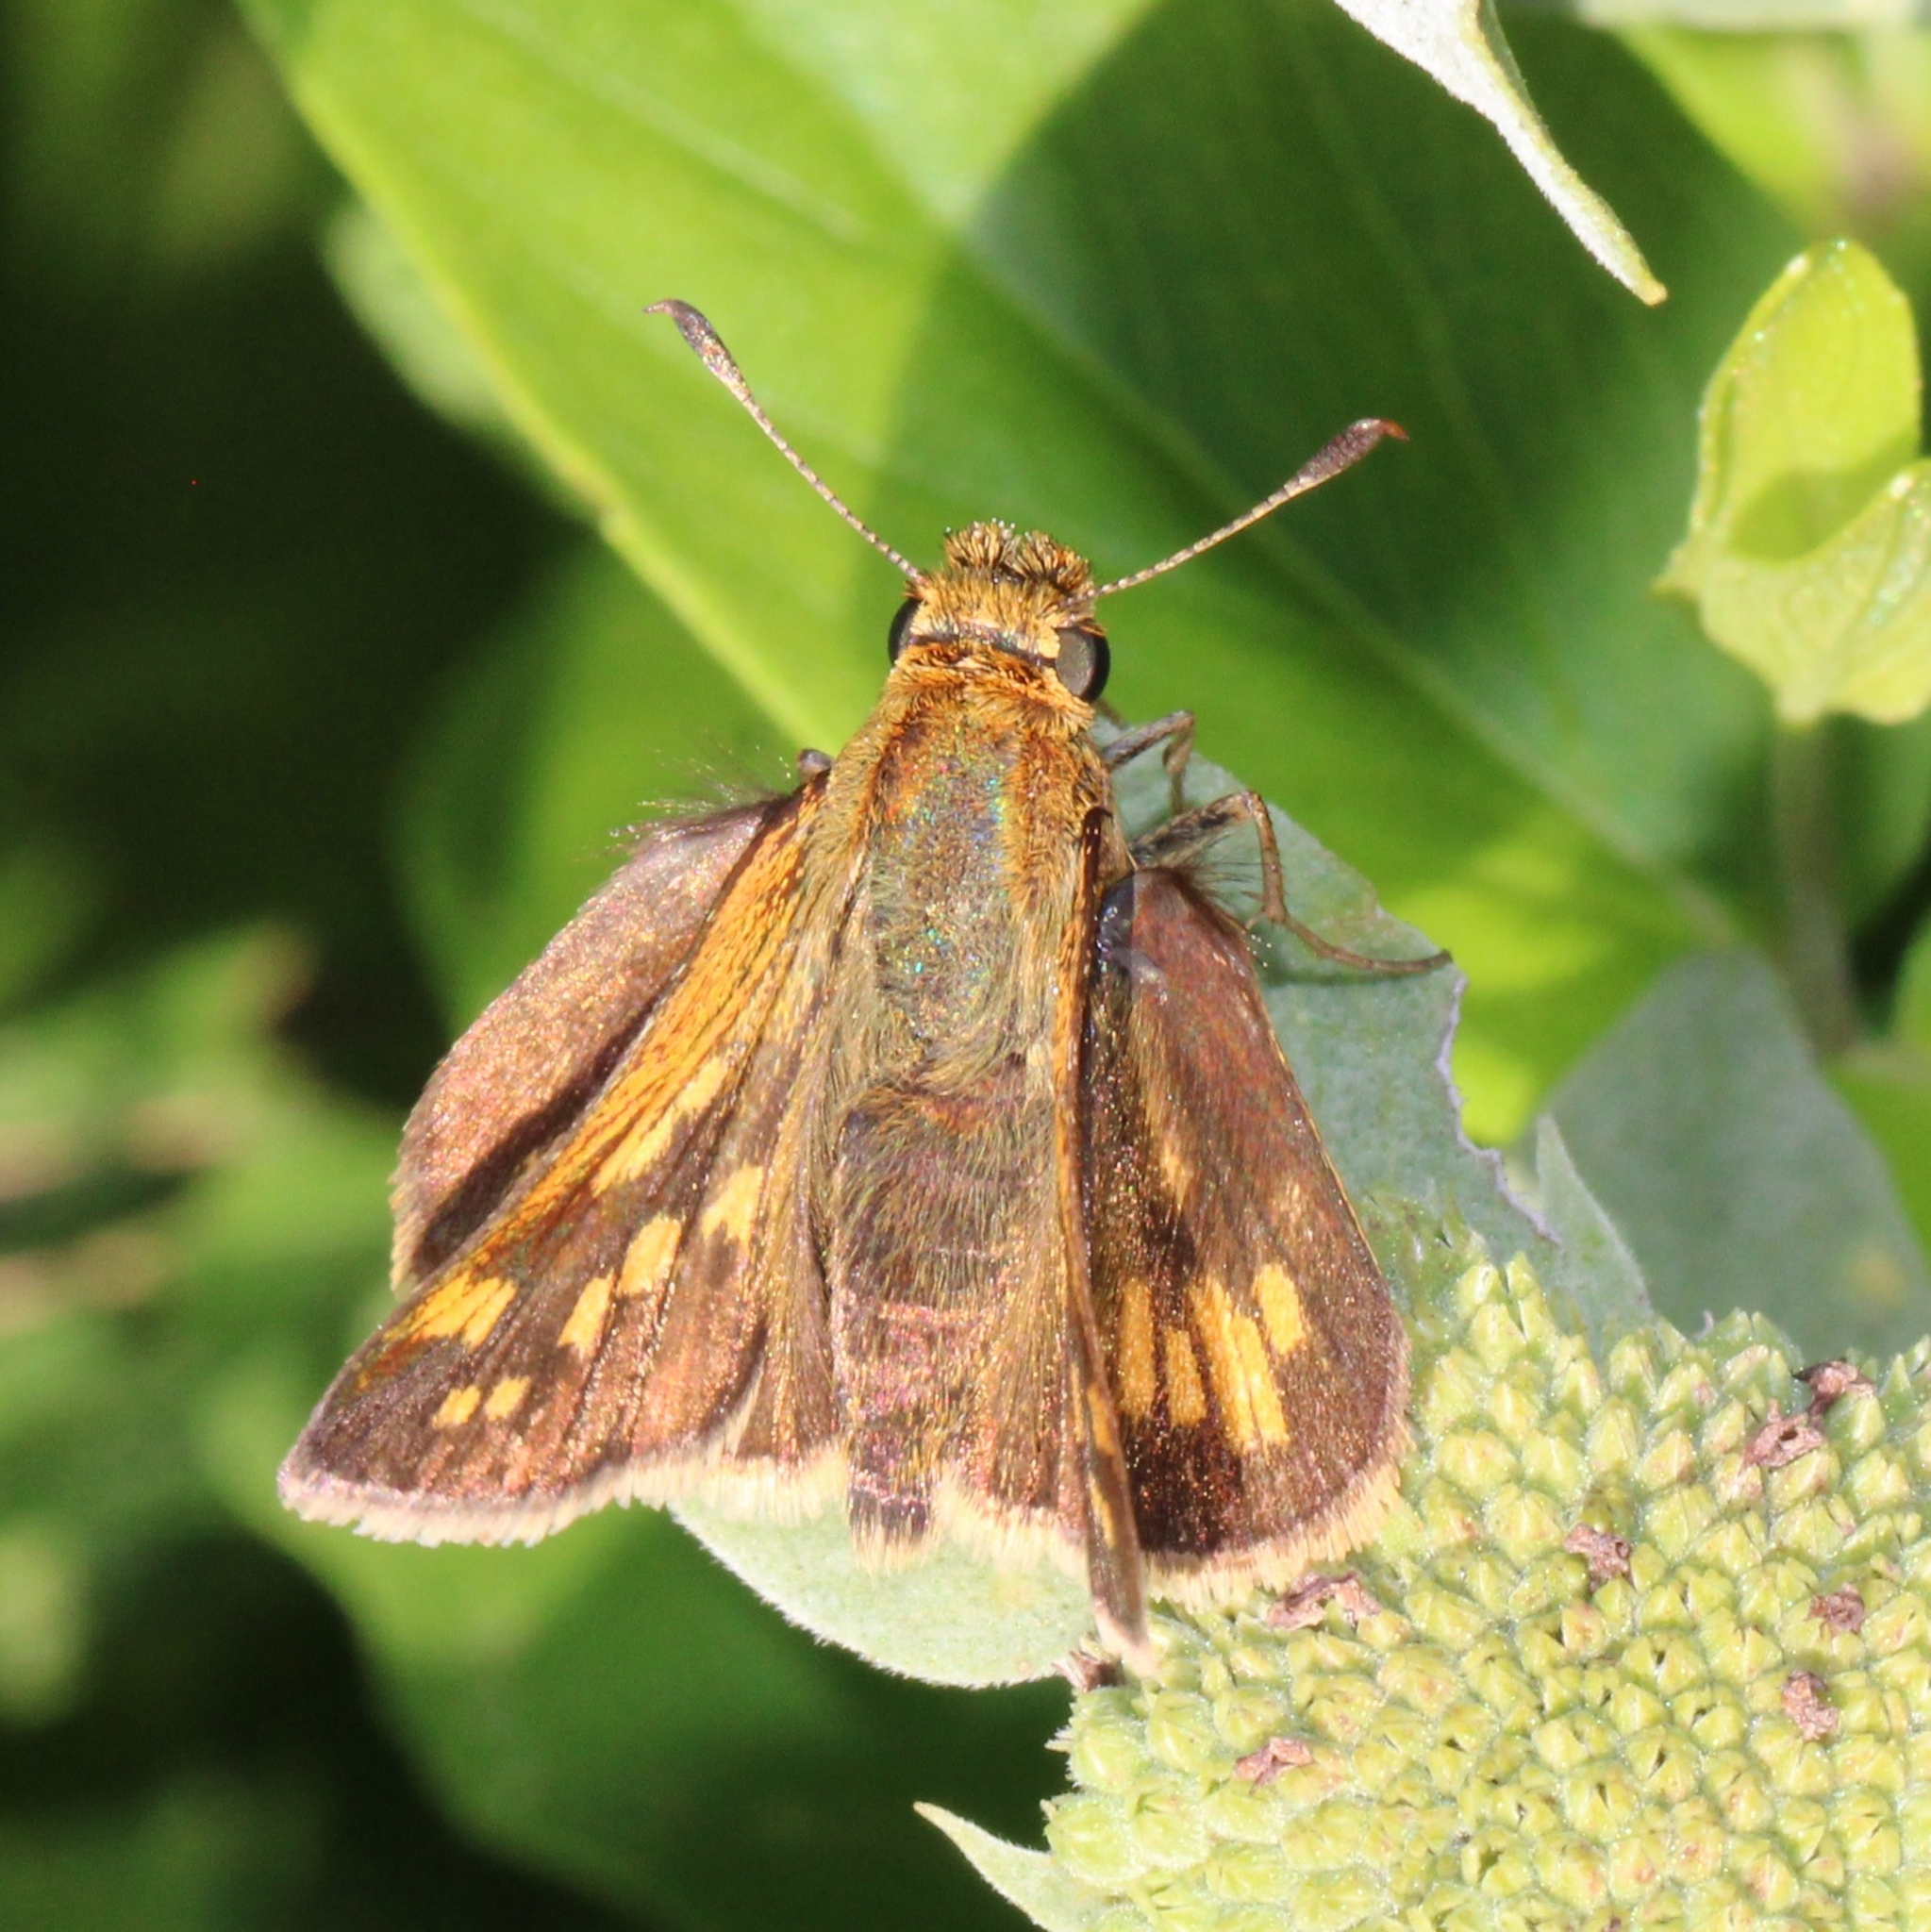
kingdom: Animalia
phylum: Arthropoda
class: Insecta
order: Lepidoptera
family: Hesperiidae
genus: Polites
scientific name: Polites coras
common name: Peck's skipper
